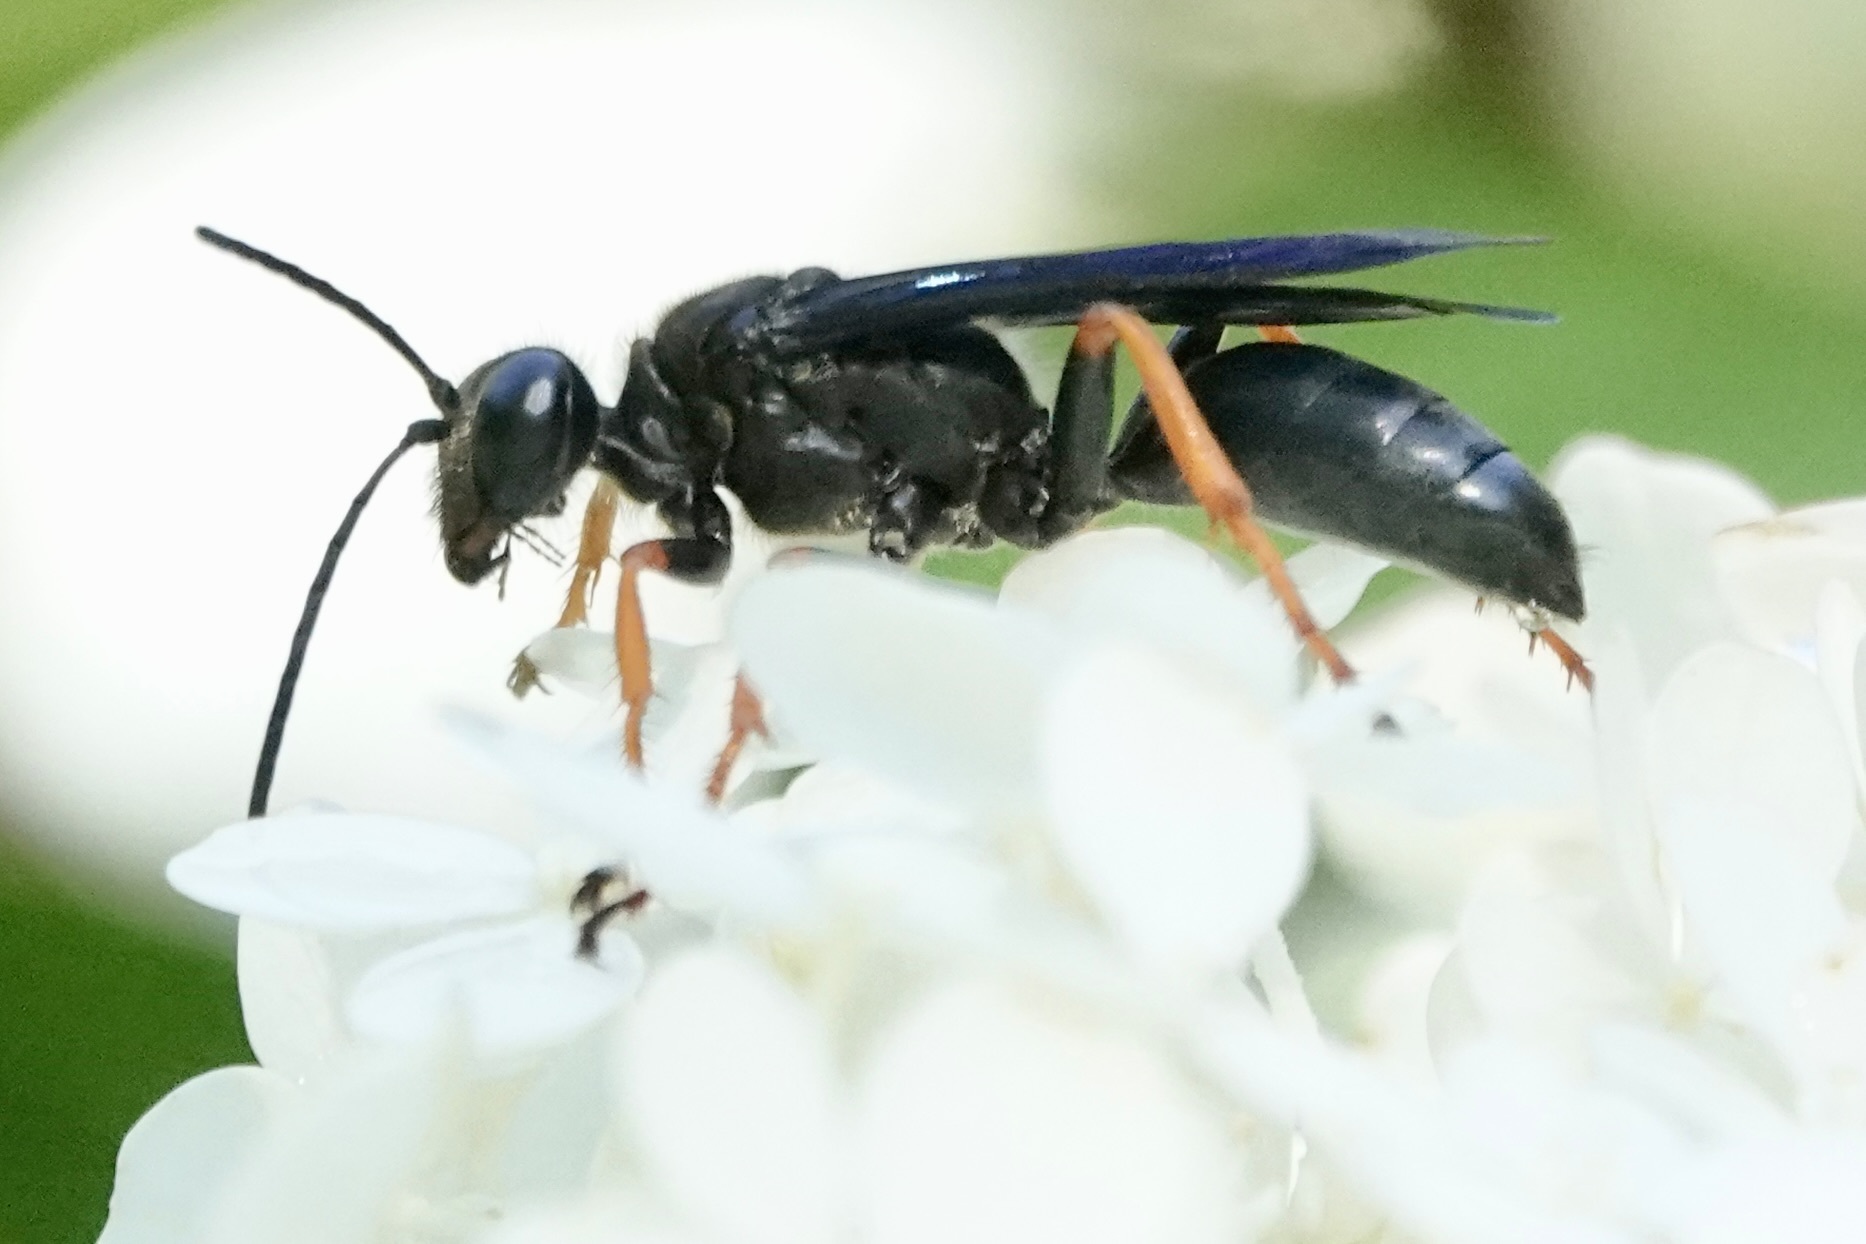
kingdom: Animalia
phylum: Arthropoda
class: Insecta
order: Hymenoptera
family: Sphecidae
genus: Sphex
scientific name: Sphex nudus
